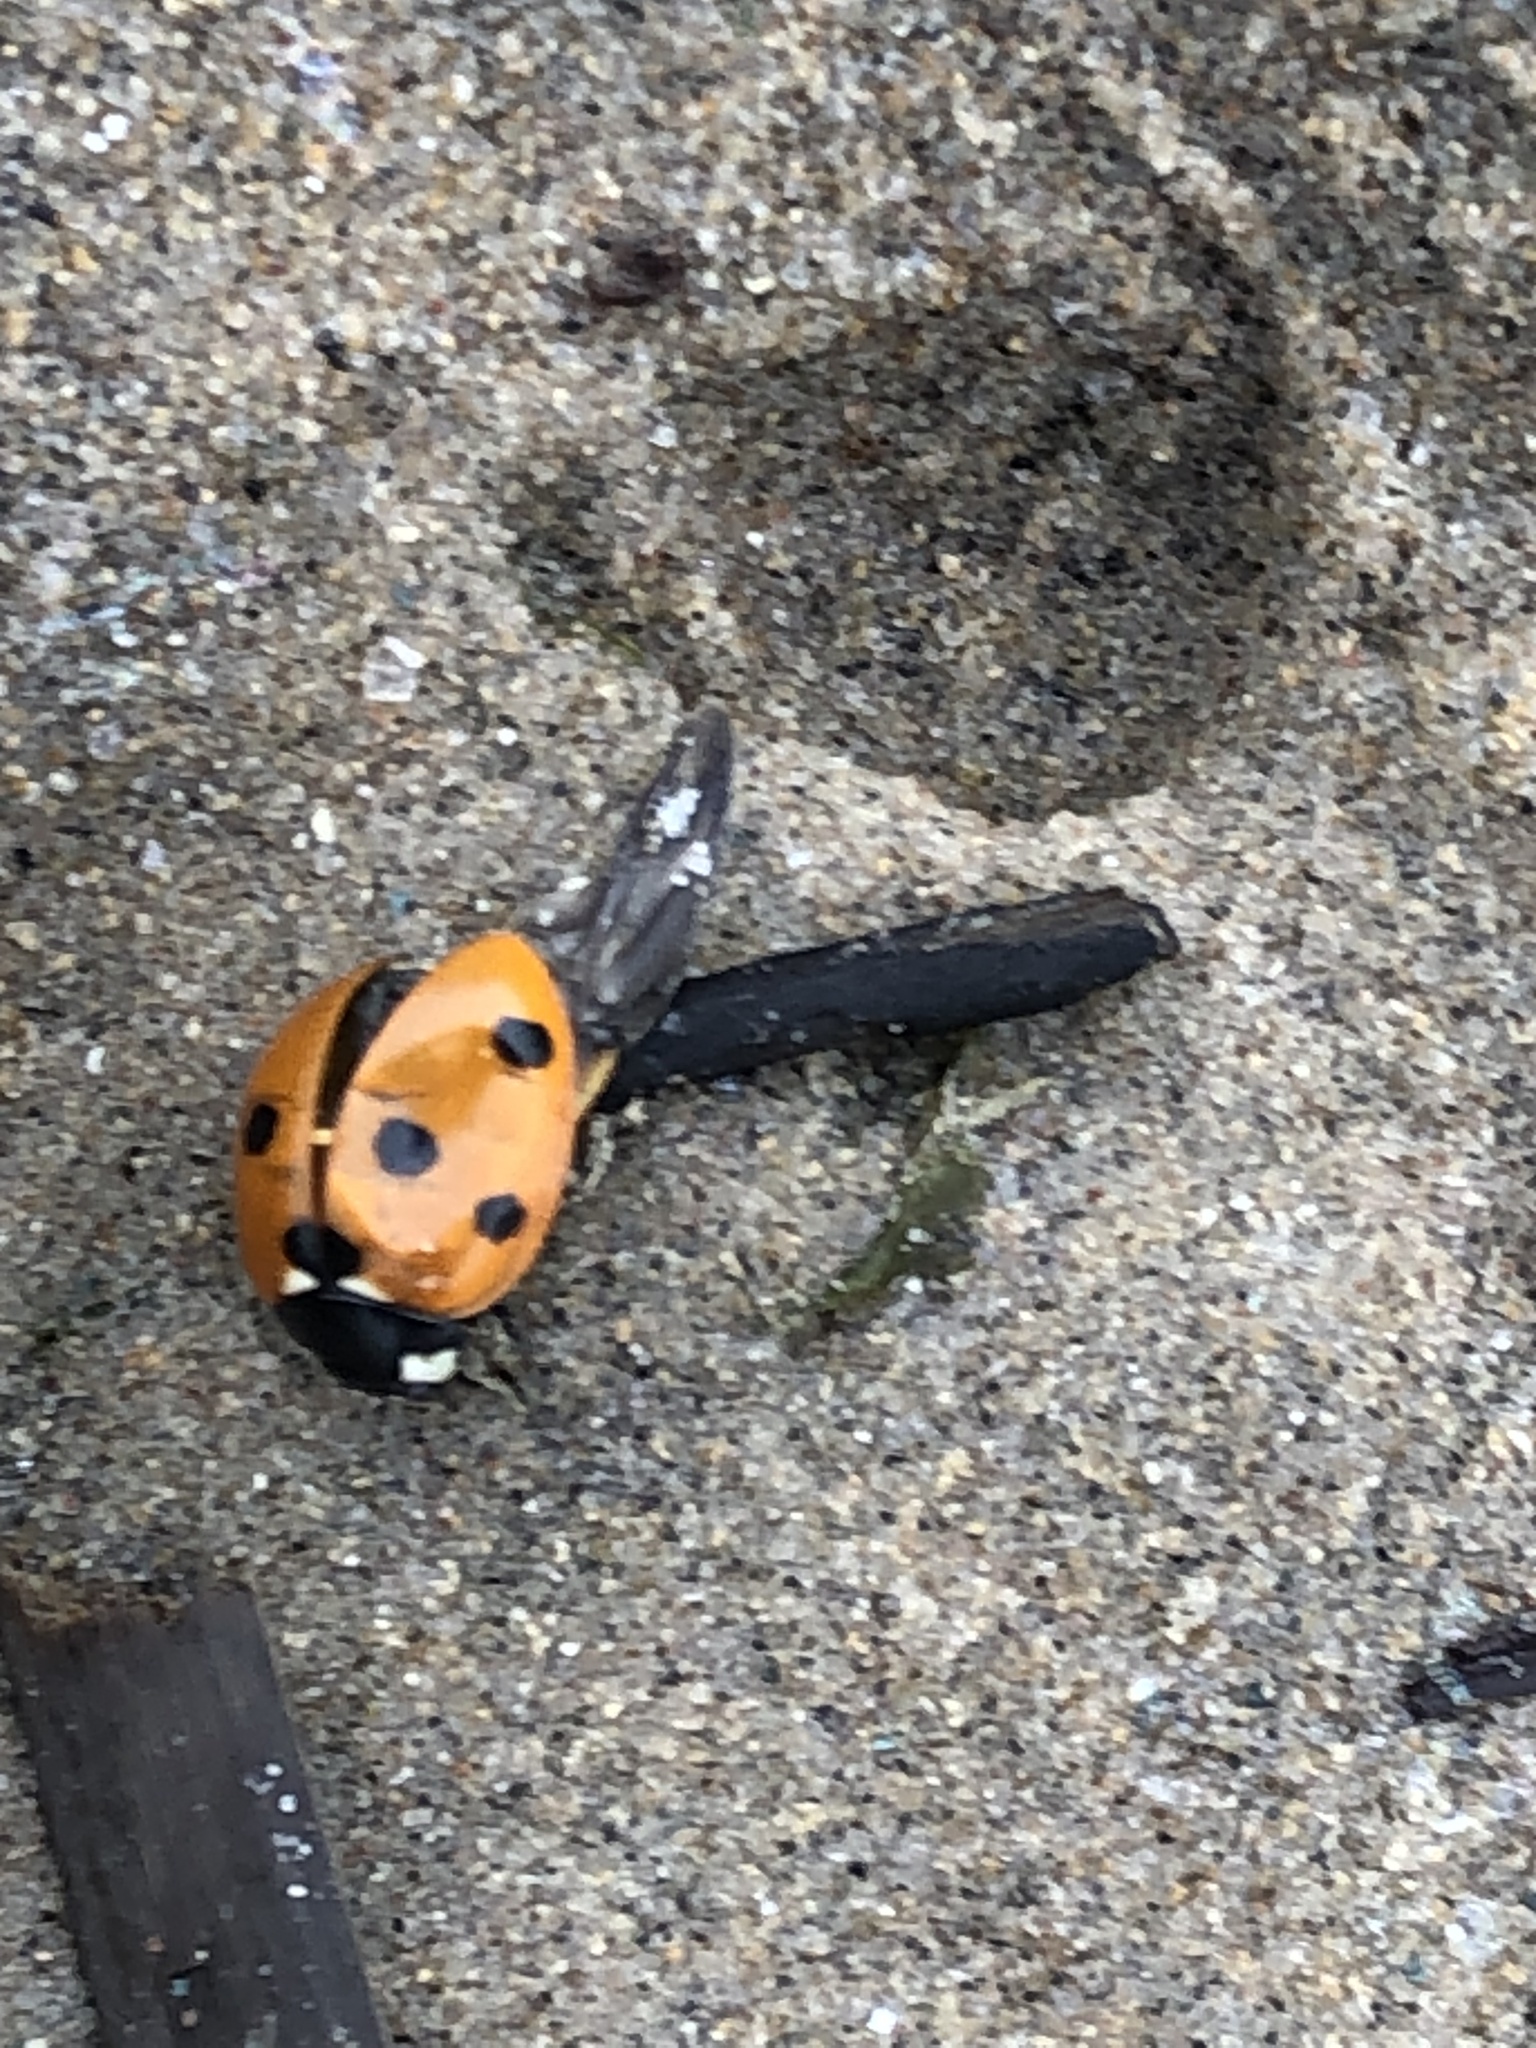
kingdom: Animalia
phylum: Arthropoda
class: Insecta
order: Coleoptera
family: Coccinellidae
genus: Coccinella
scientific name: Coccinella septempunctata
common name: Sevenspotted lady beetle
